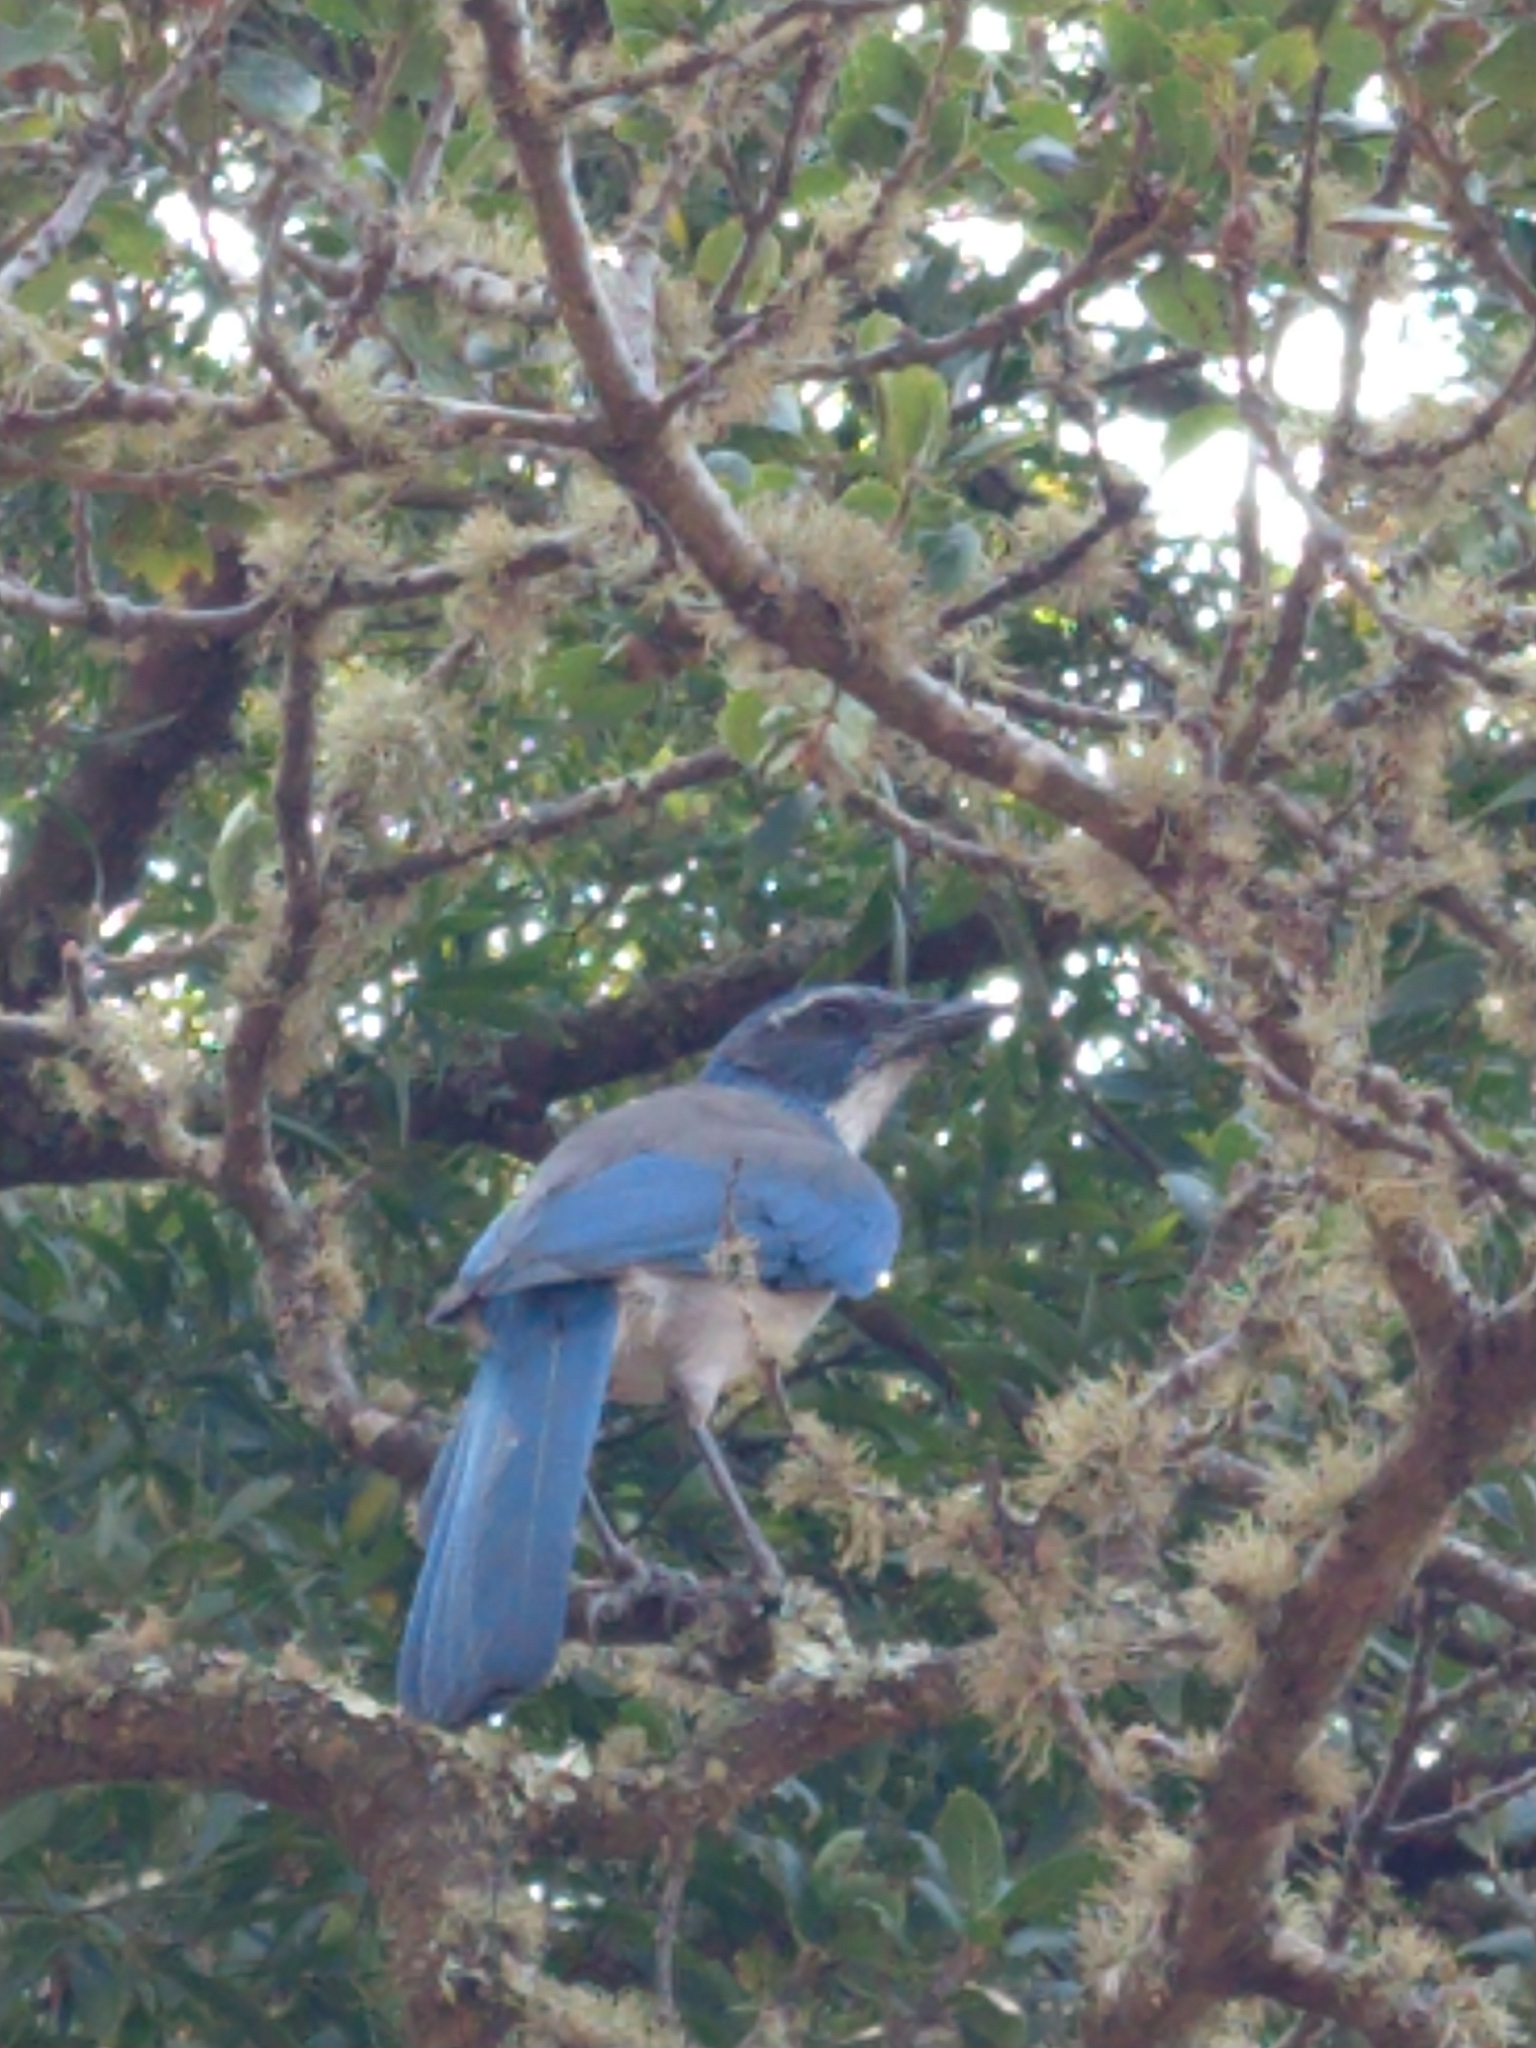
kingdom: Animalia
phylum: Chordata
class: Aves
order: Passeriformes
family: Corvidae
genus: Aphelocoma
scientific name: Aphelocoma californica
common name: California scrub-jay
